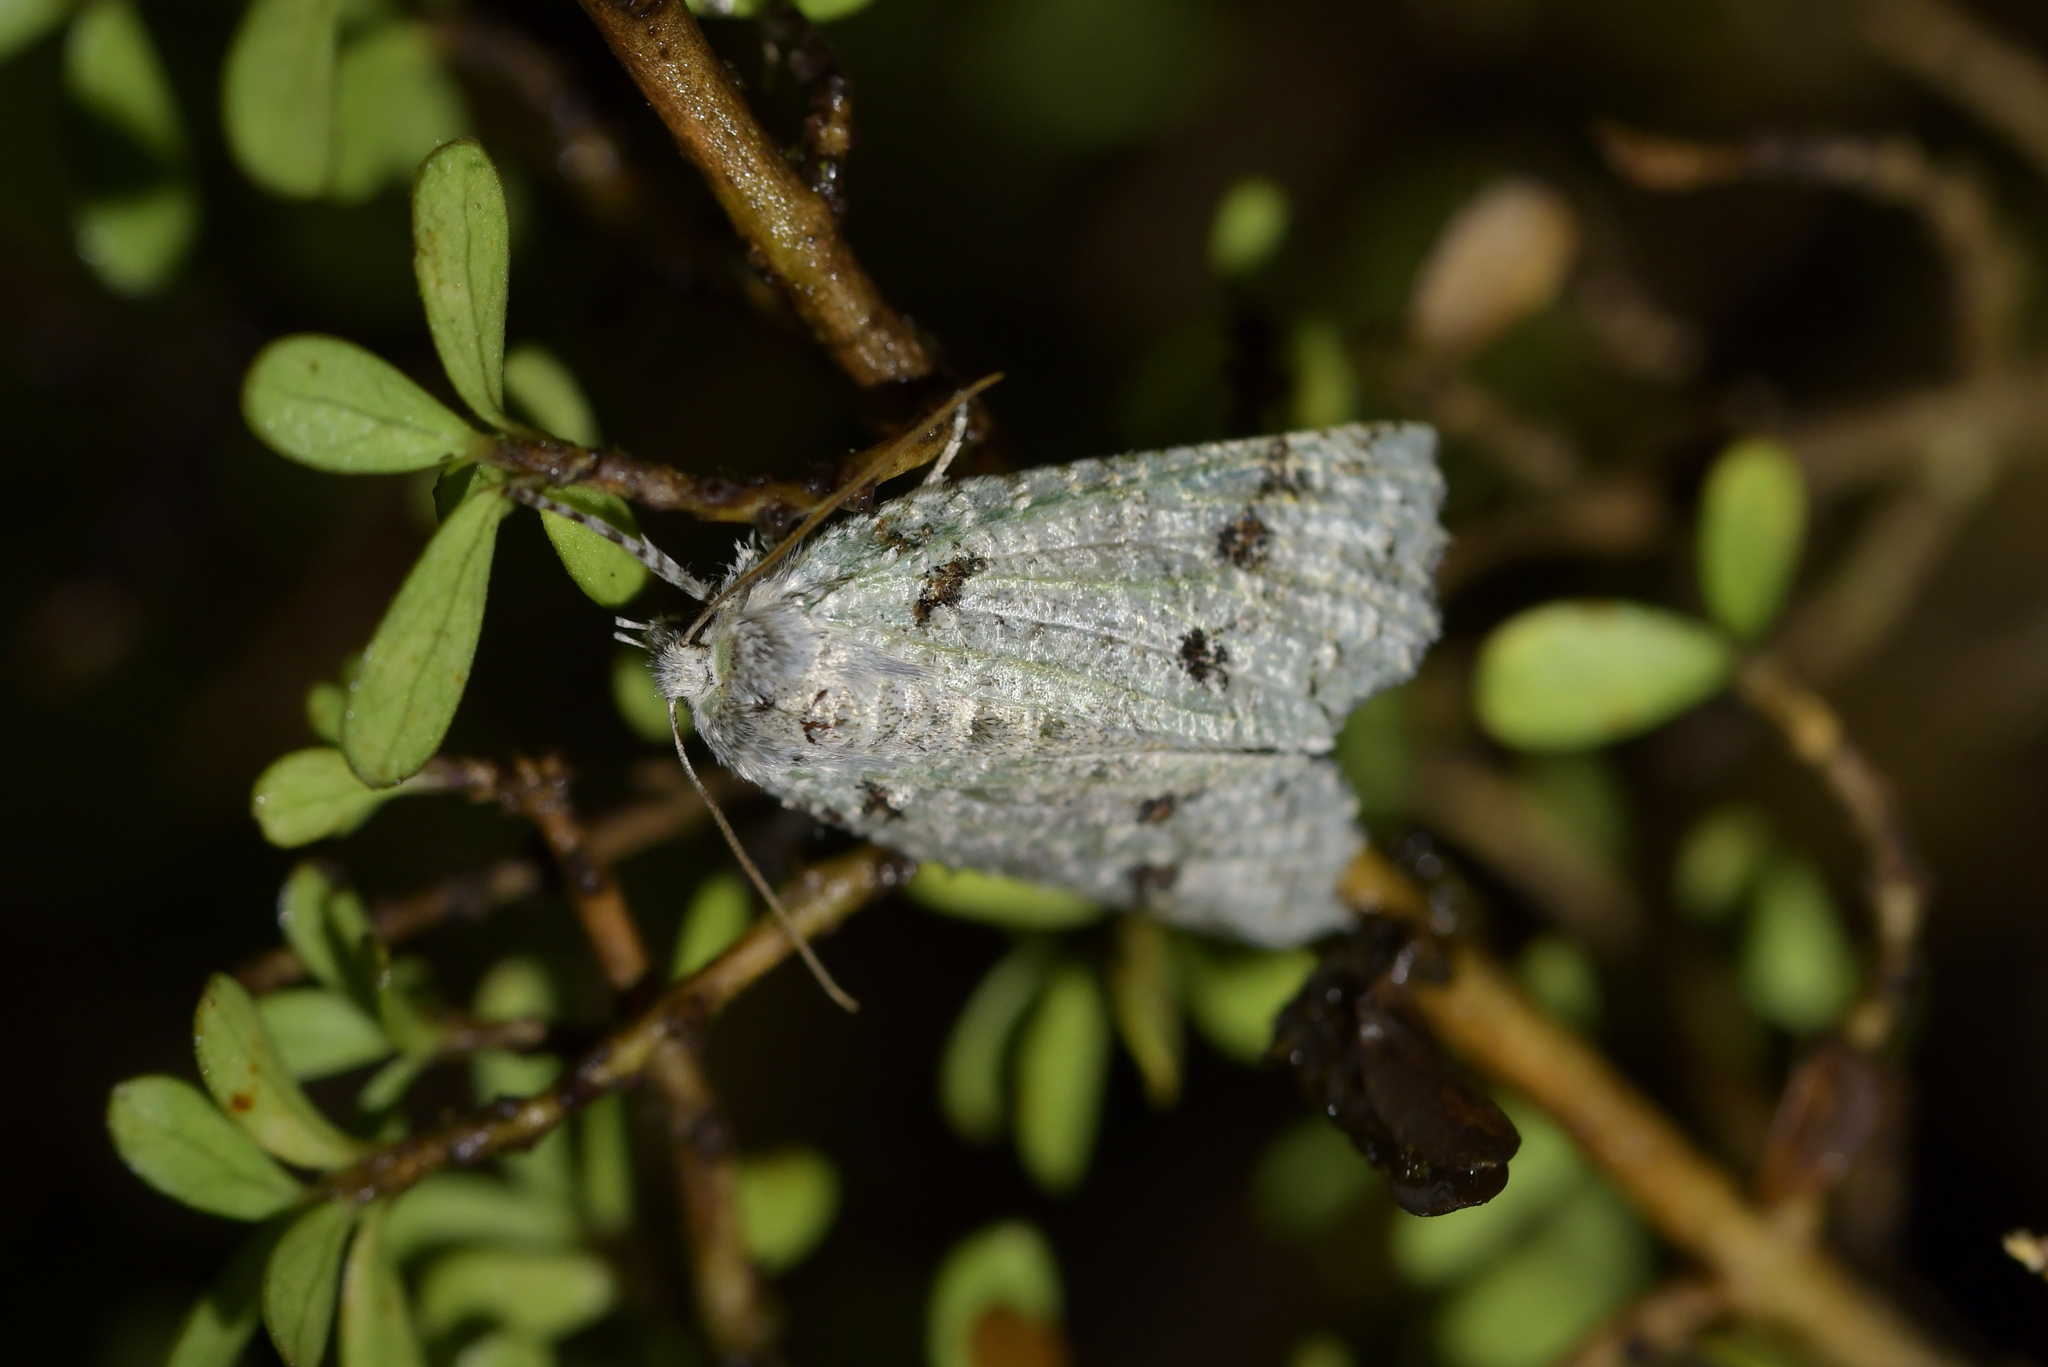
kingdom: Animalia
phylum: Arthropoda
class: Insecta
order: Lepidoptera
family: Geometridae
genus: Declana
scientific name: Declana floccosa
